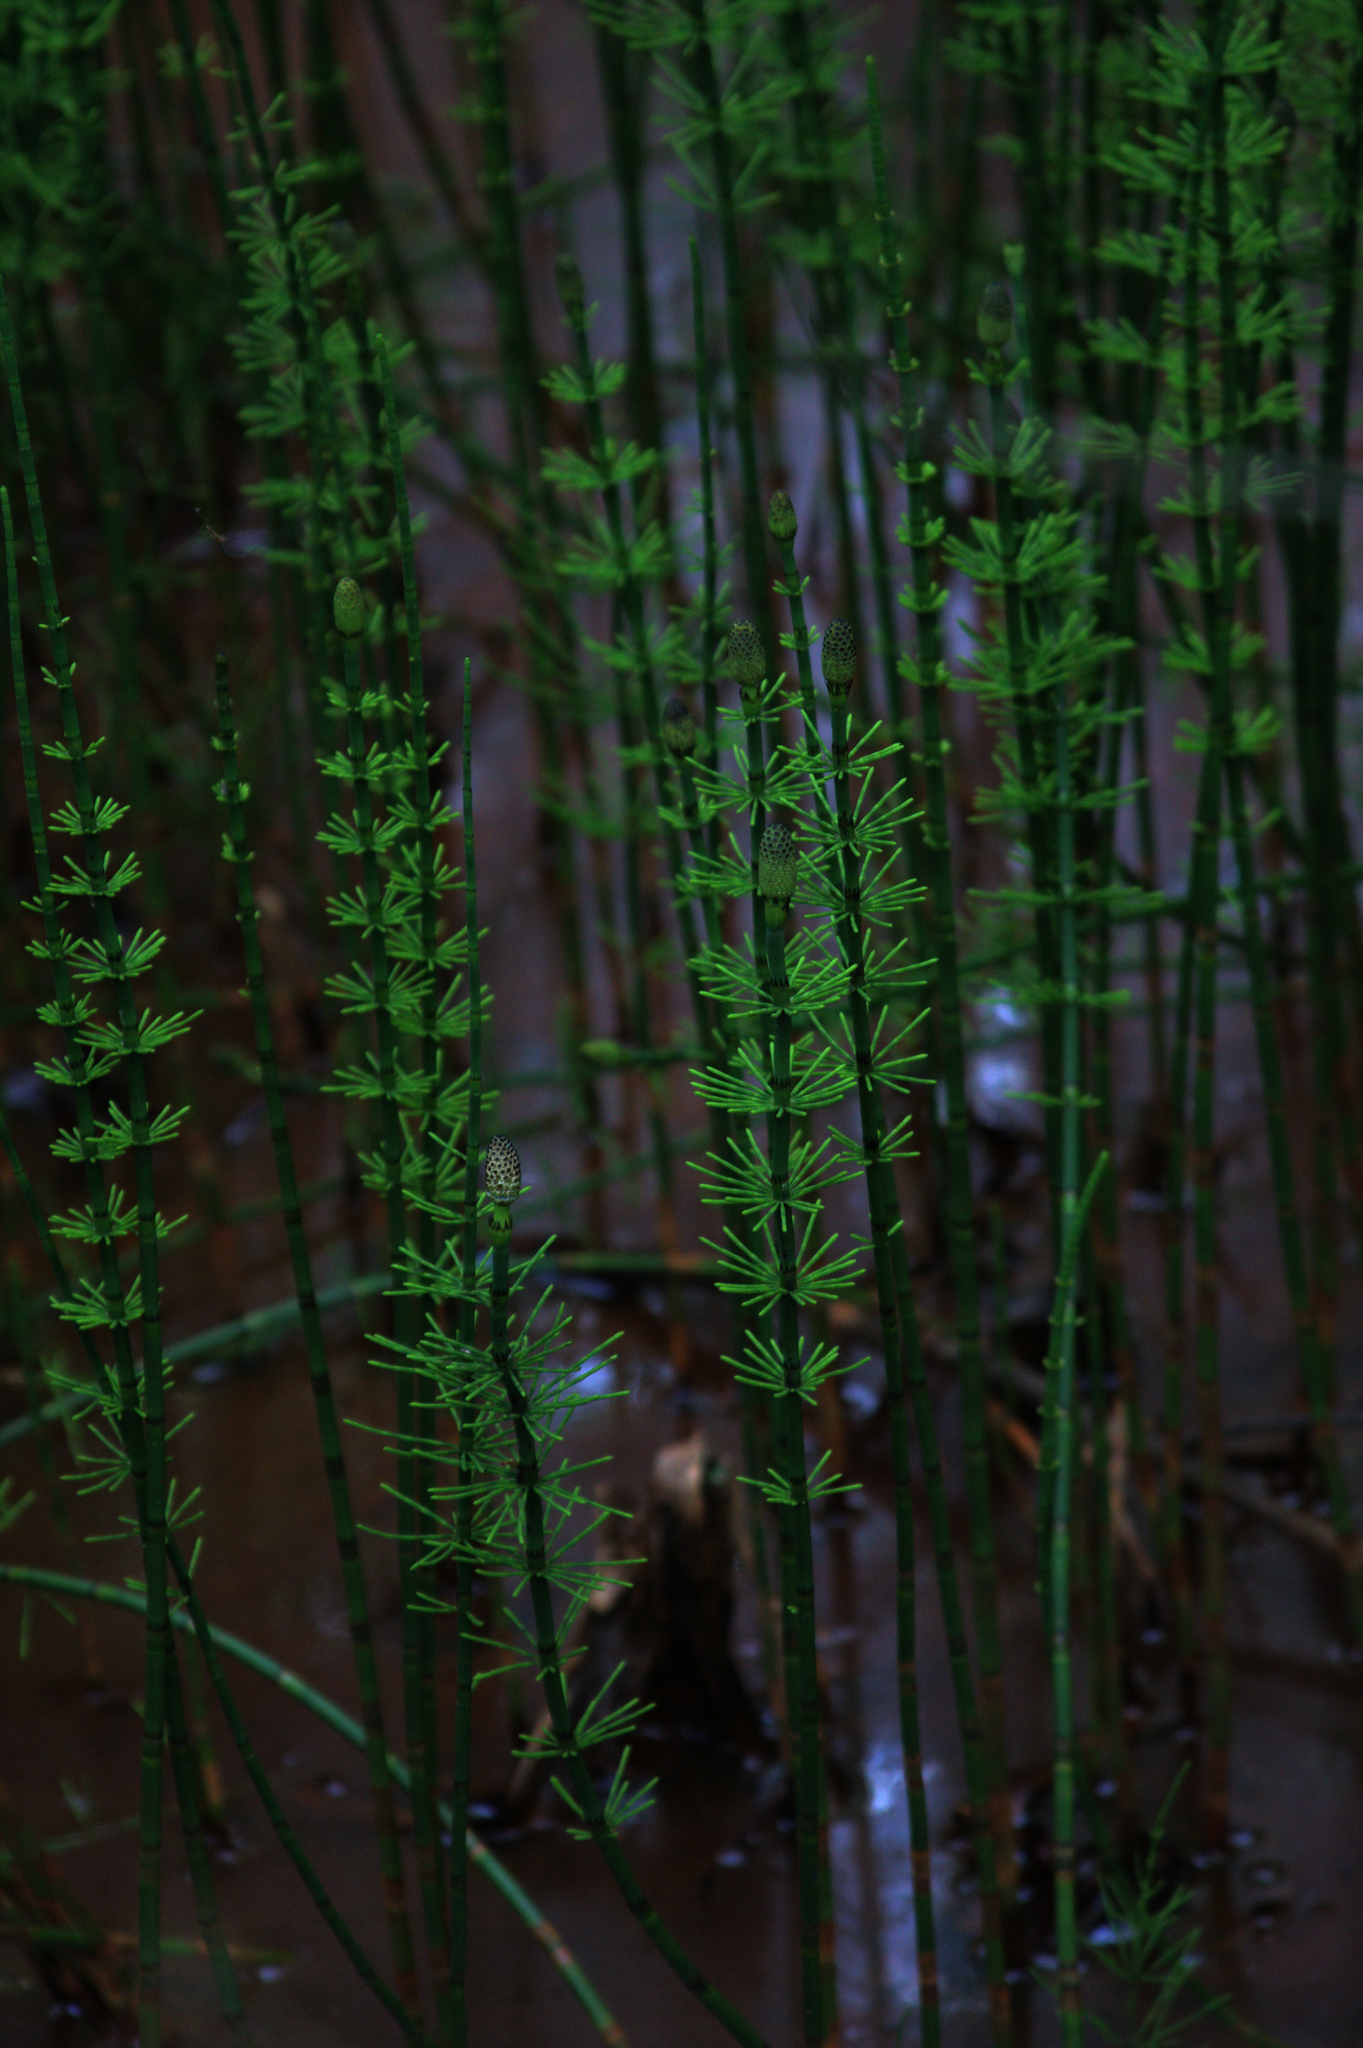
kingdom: Plantae
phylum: Tracheophyta
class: Polypodiopsida
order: Equisetales
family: Equisetaceae
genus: Equisetum
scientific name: Equisetum fluviatile
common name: Water horsetail
